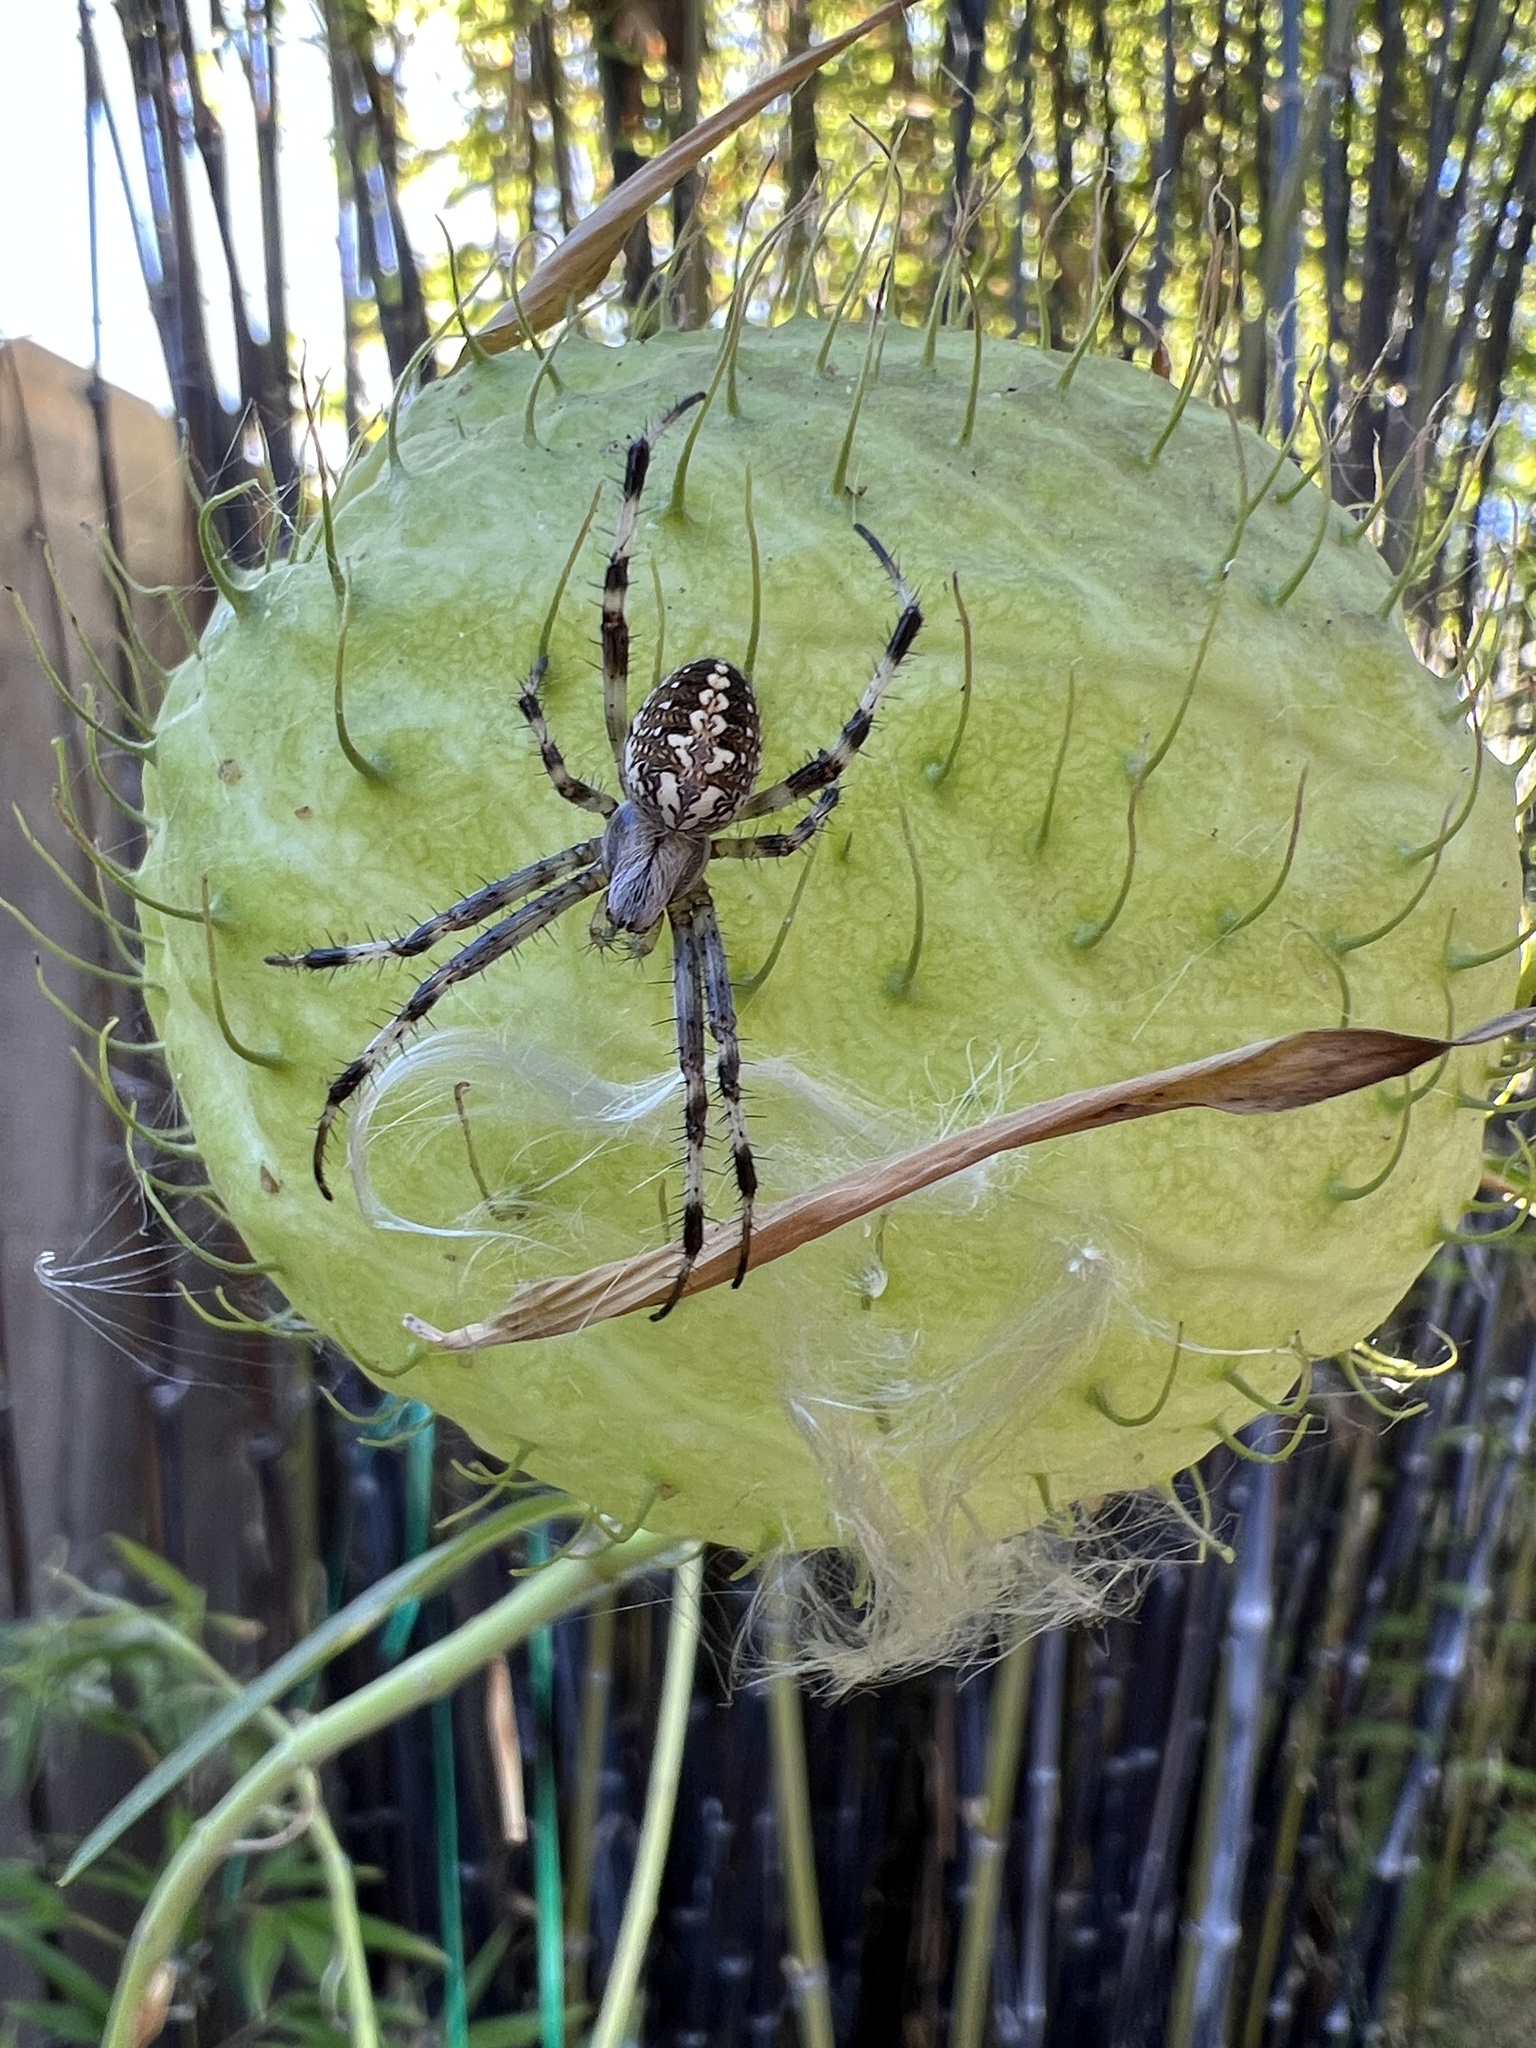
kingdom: Animalia
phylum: Arthropoda
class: Arachnida
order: Araneae
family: Araneidae
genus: Neoscona
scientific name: Neoscona oaxacensis
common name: Orb weavers
